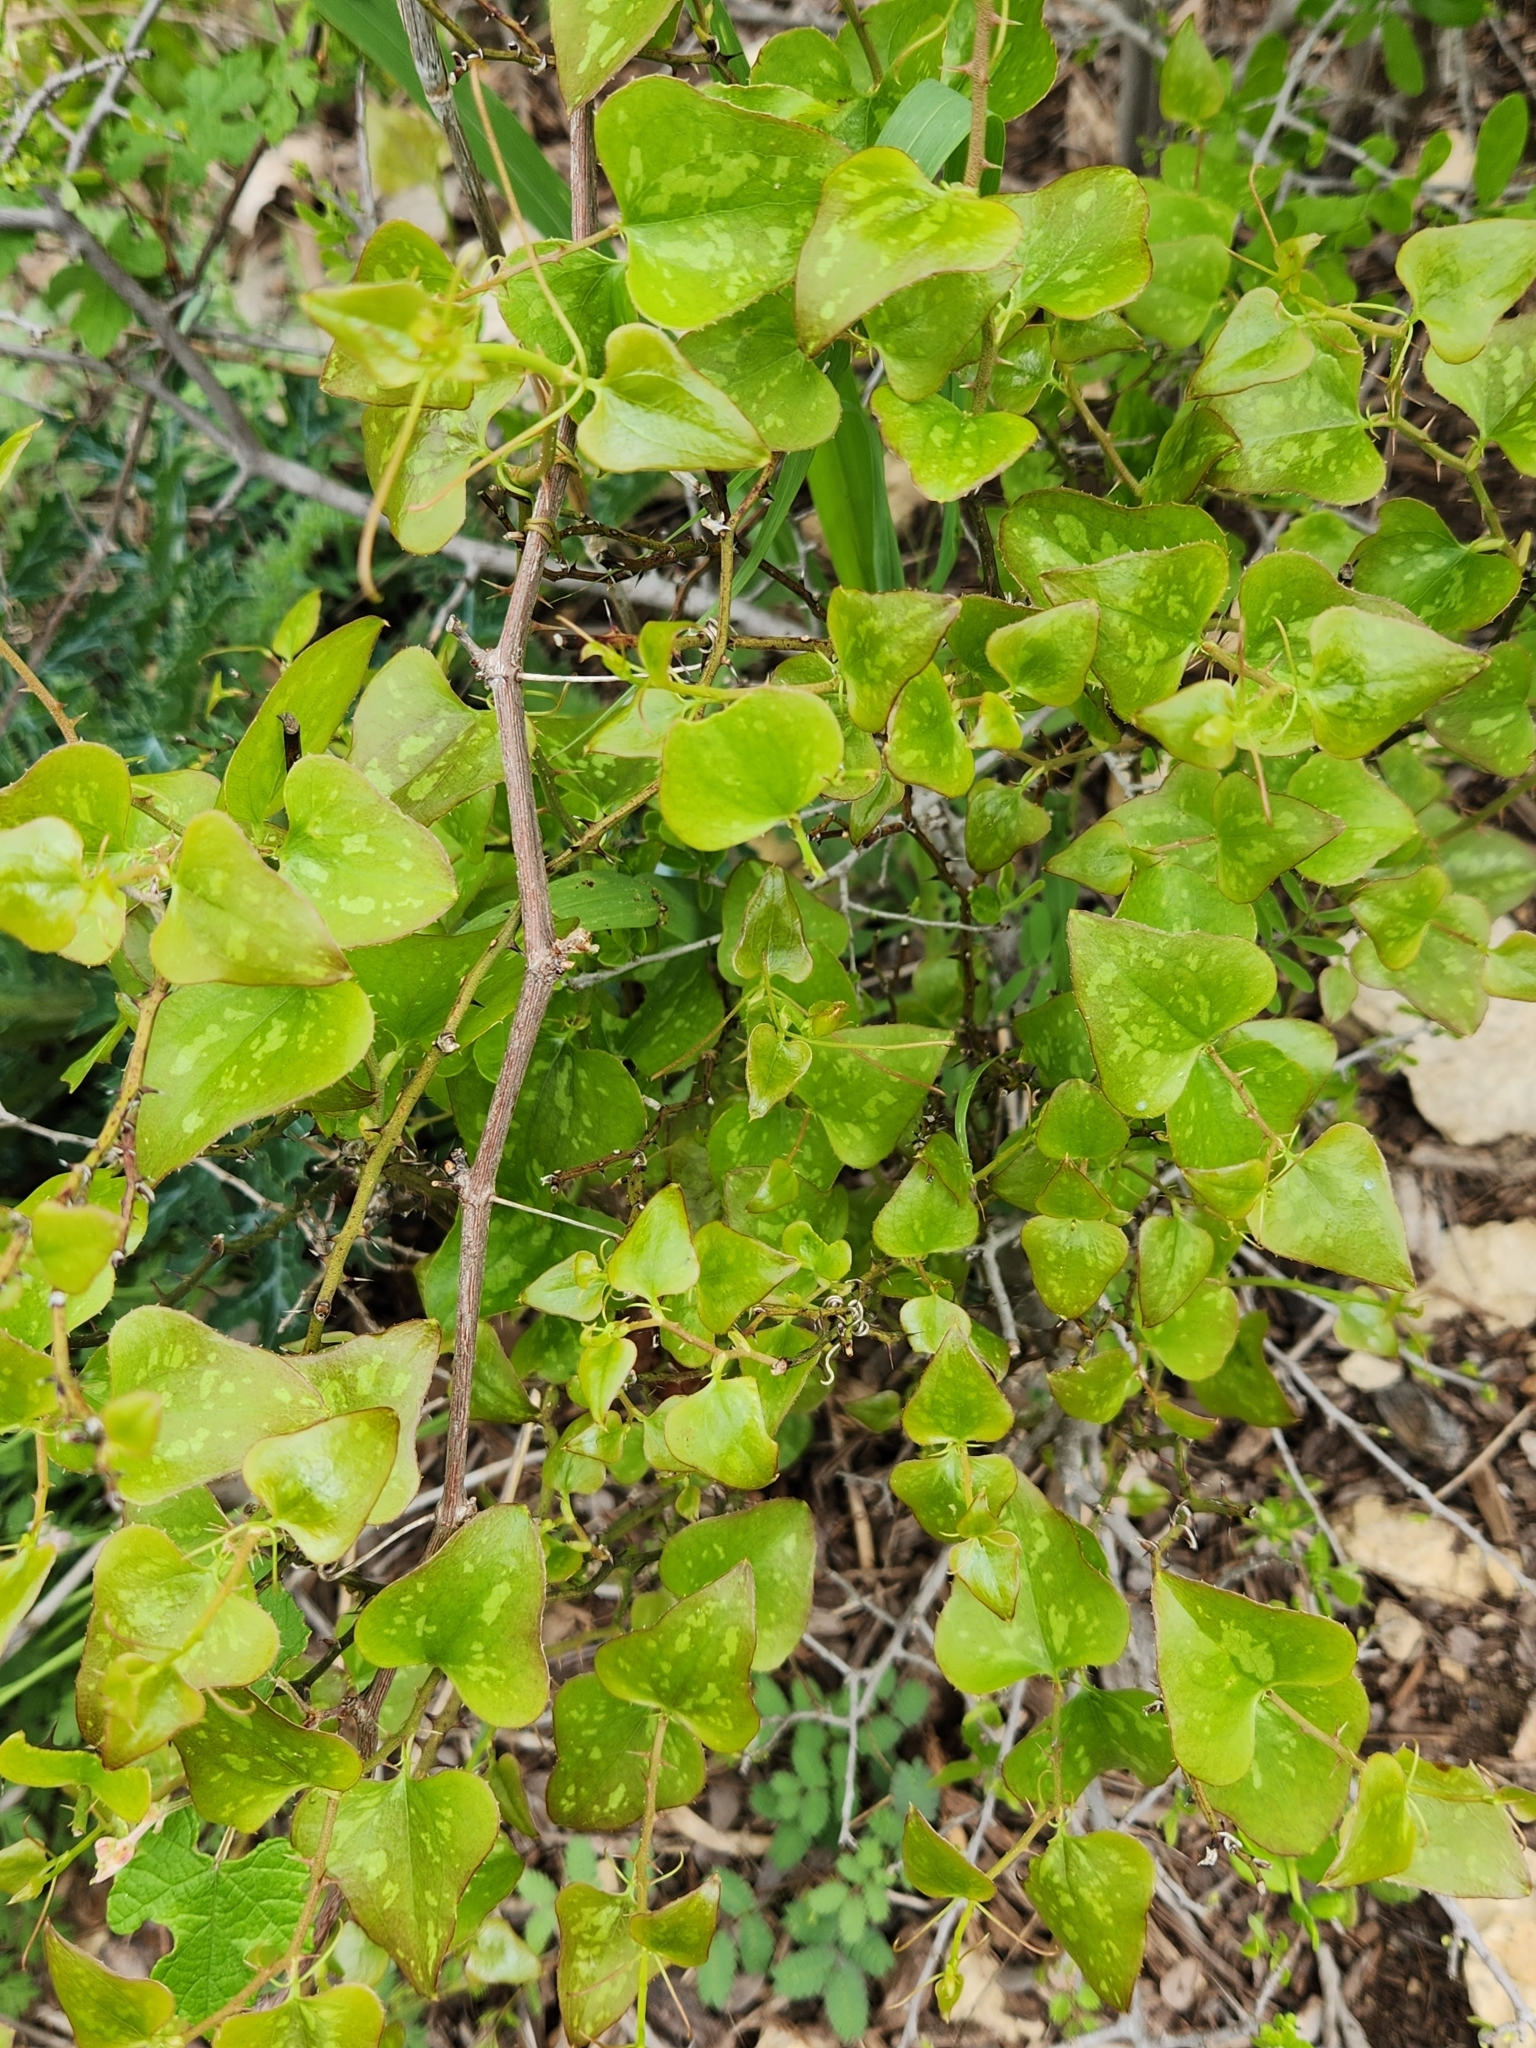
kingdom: Plantae
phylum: Tracheophyta
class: Liliopsida
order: Liliales
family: Smilacaceae
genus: Smilax
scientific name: Smilax bona-nox
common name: Catbrier
